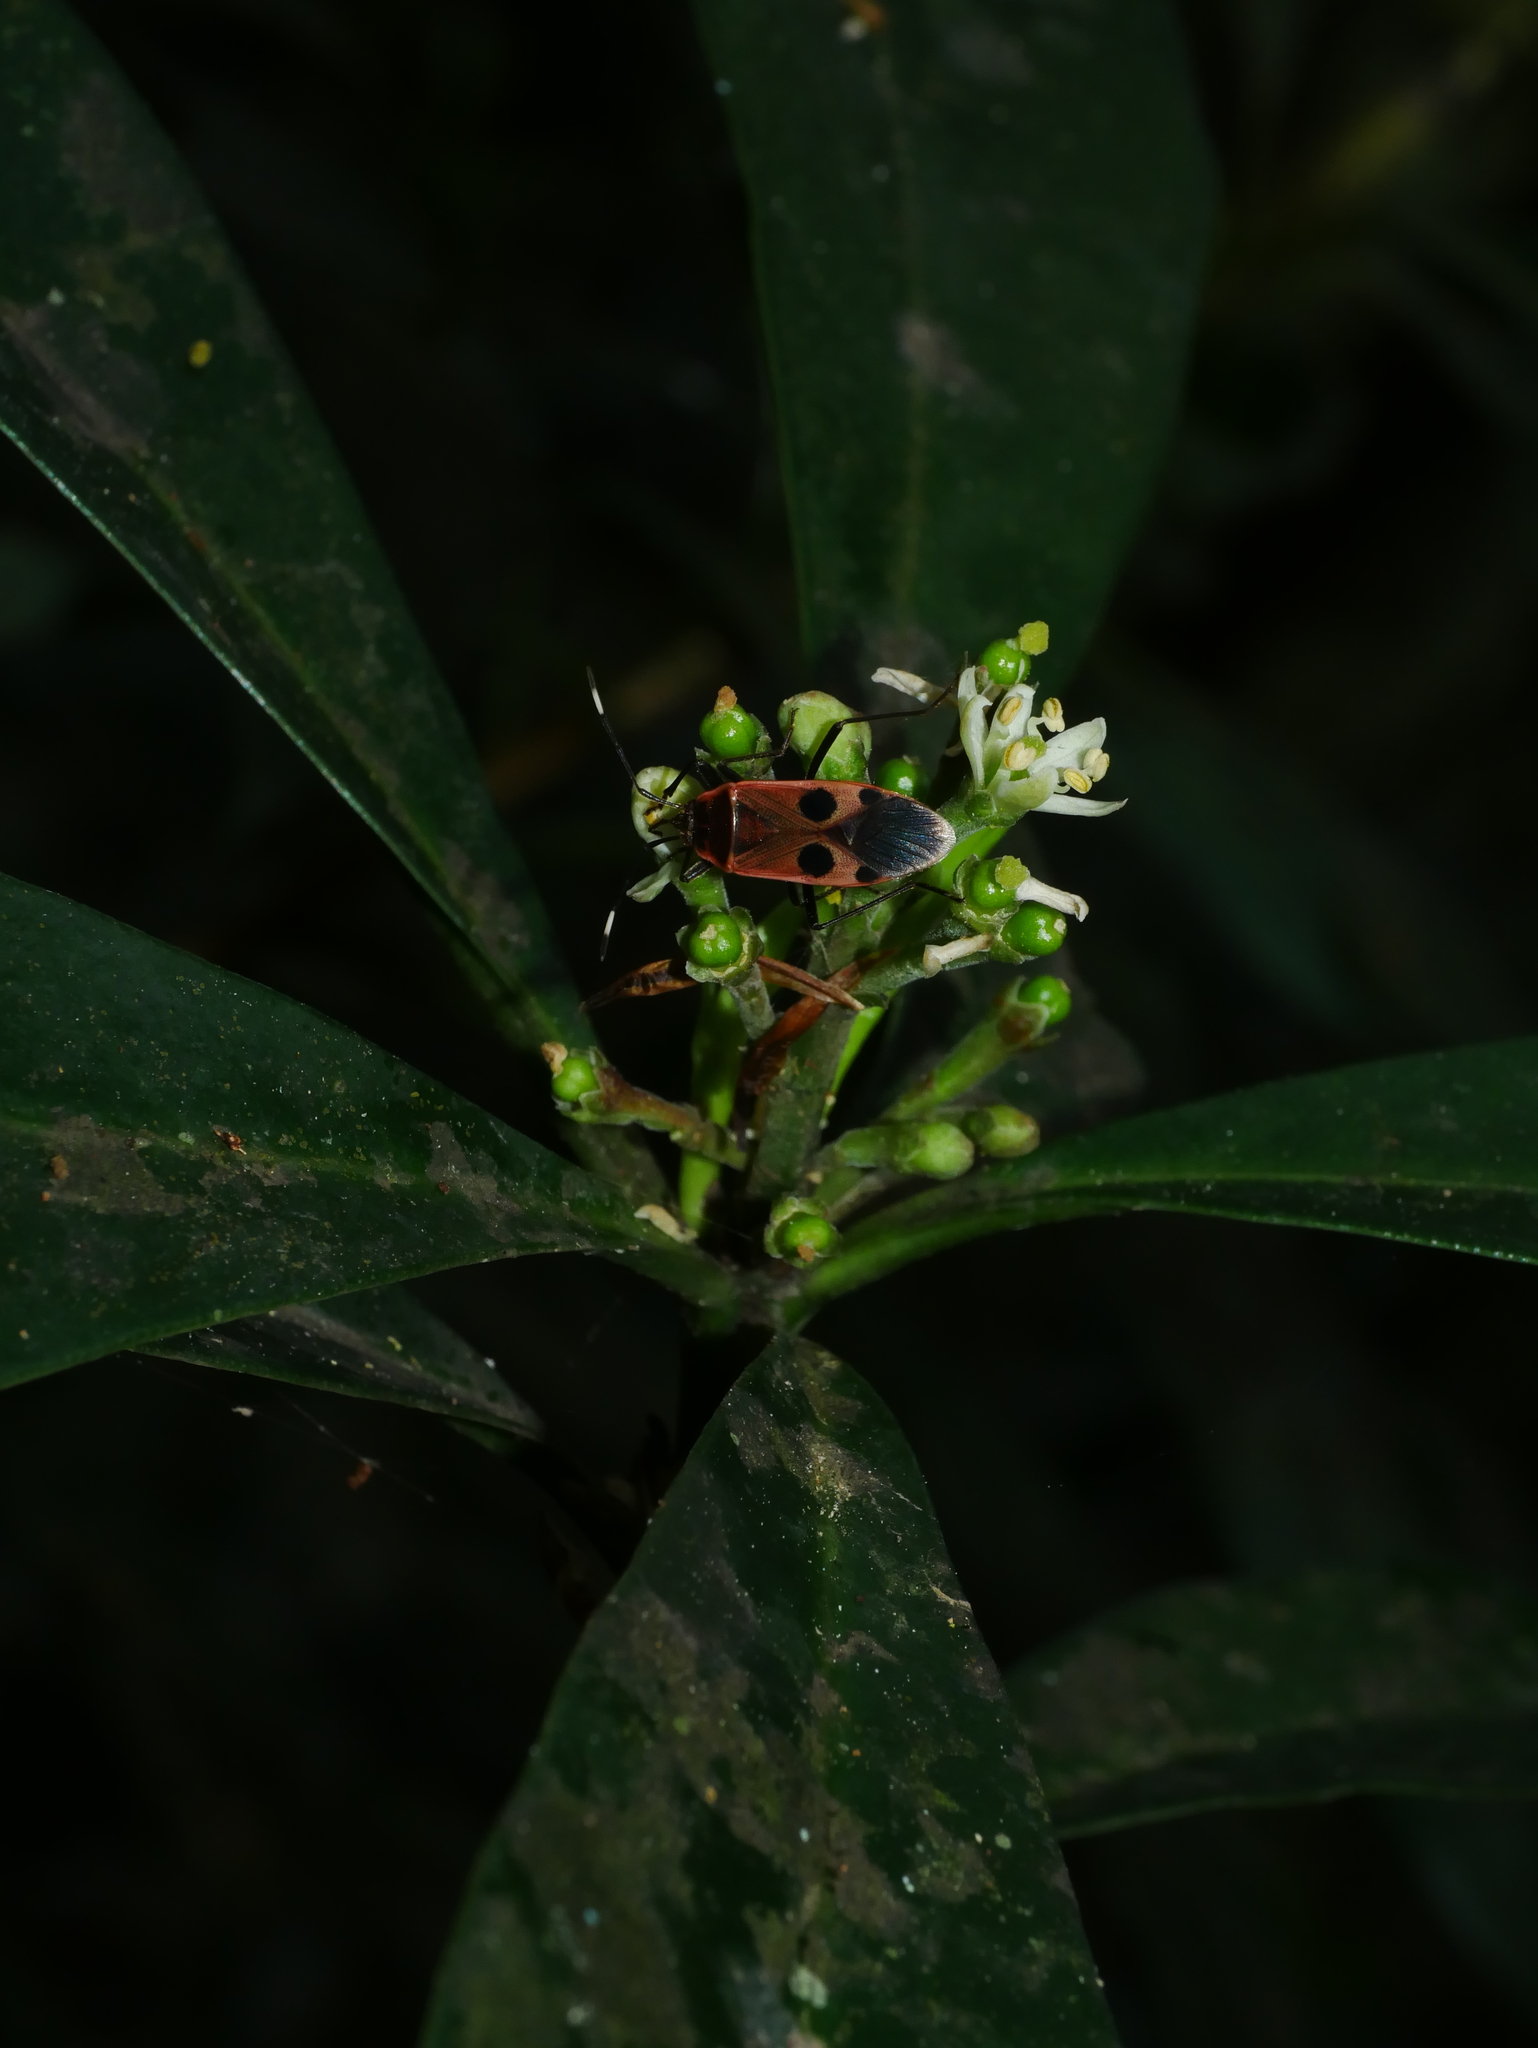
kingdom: Plantae
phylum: Tracheophyta
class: Magnoliopsida
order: Sapindales
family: Rutaceae
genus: Skimmia
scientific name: Skimmia japonica
